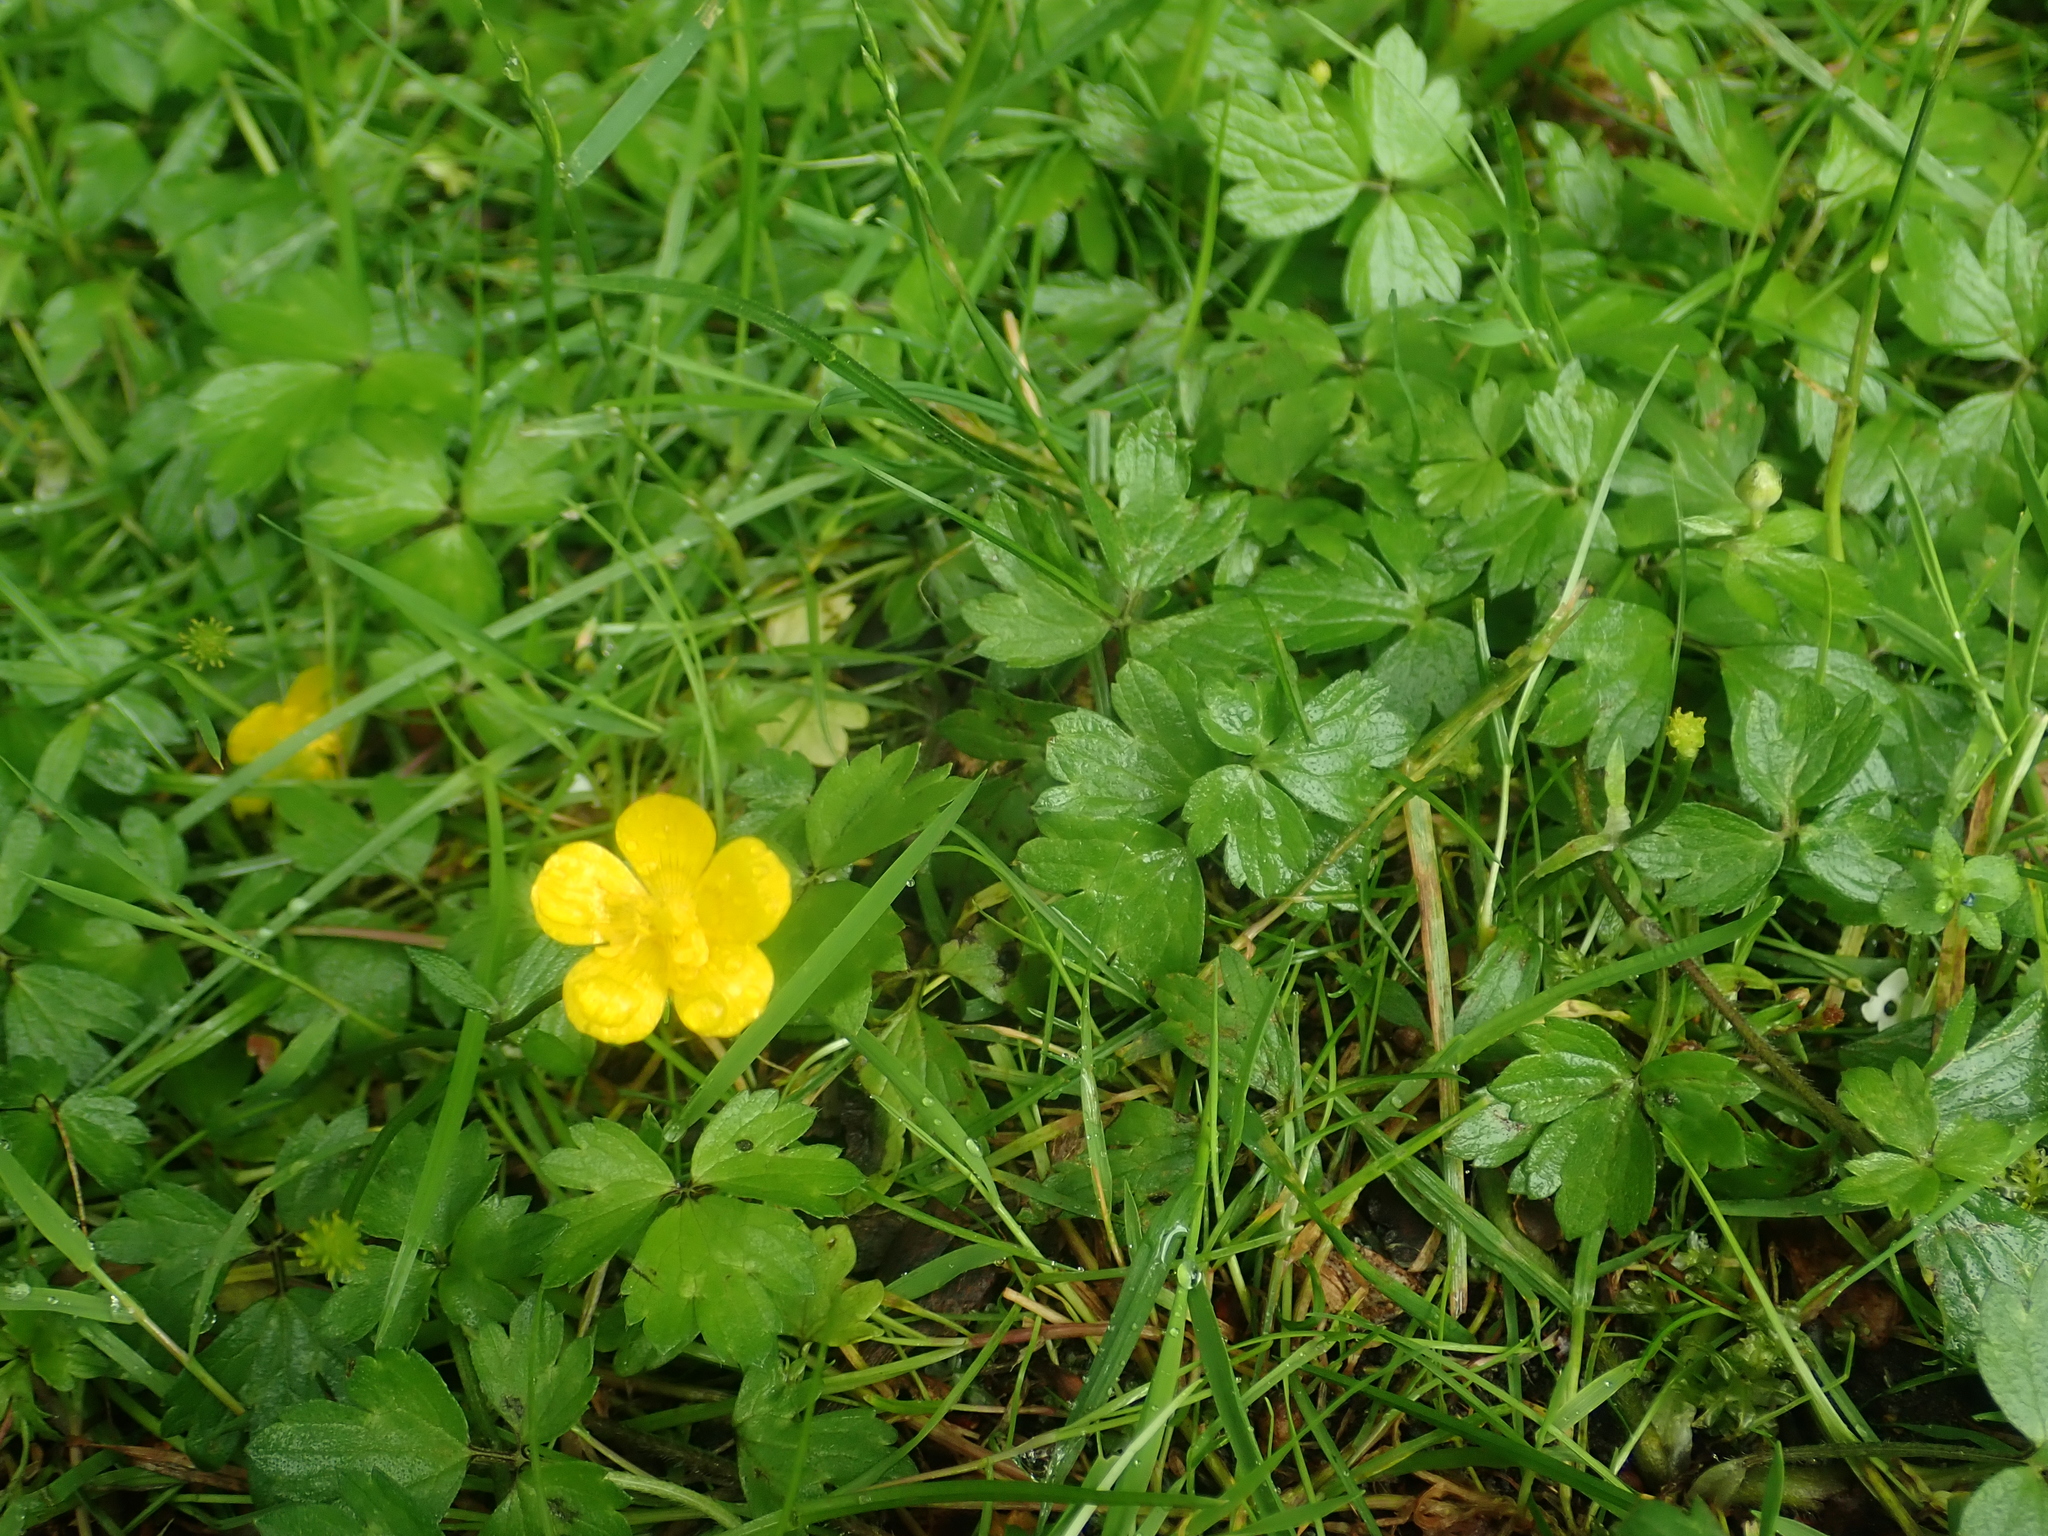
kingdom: Plantae
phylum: Tracheophyta
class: Magnoliopsida
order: Ranunculales
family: Ranunculaceae
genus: Ranunculus
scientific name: Ranunculus repens
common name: Creeping buttercup
